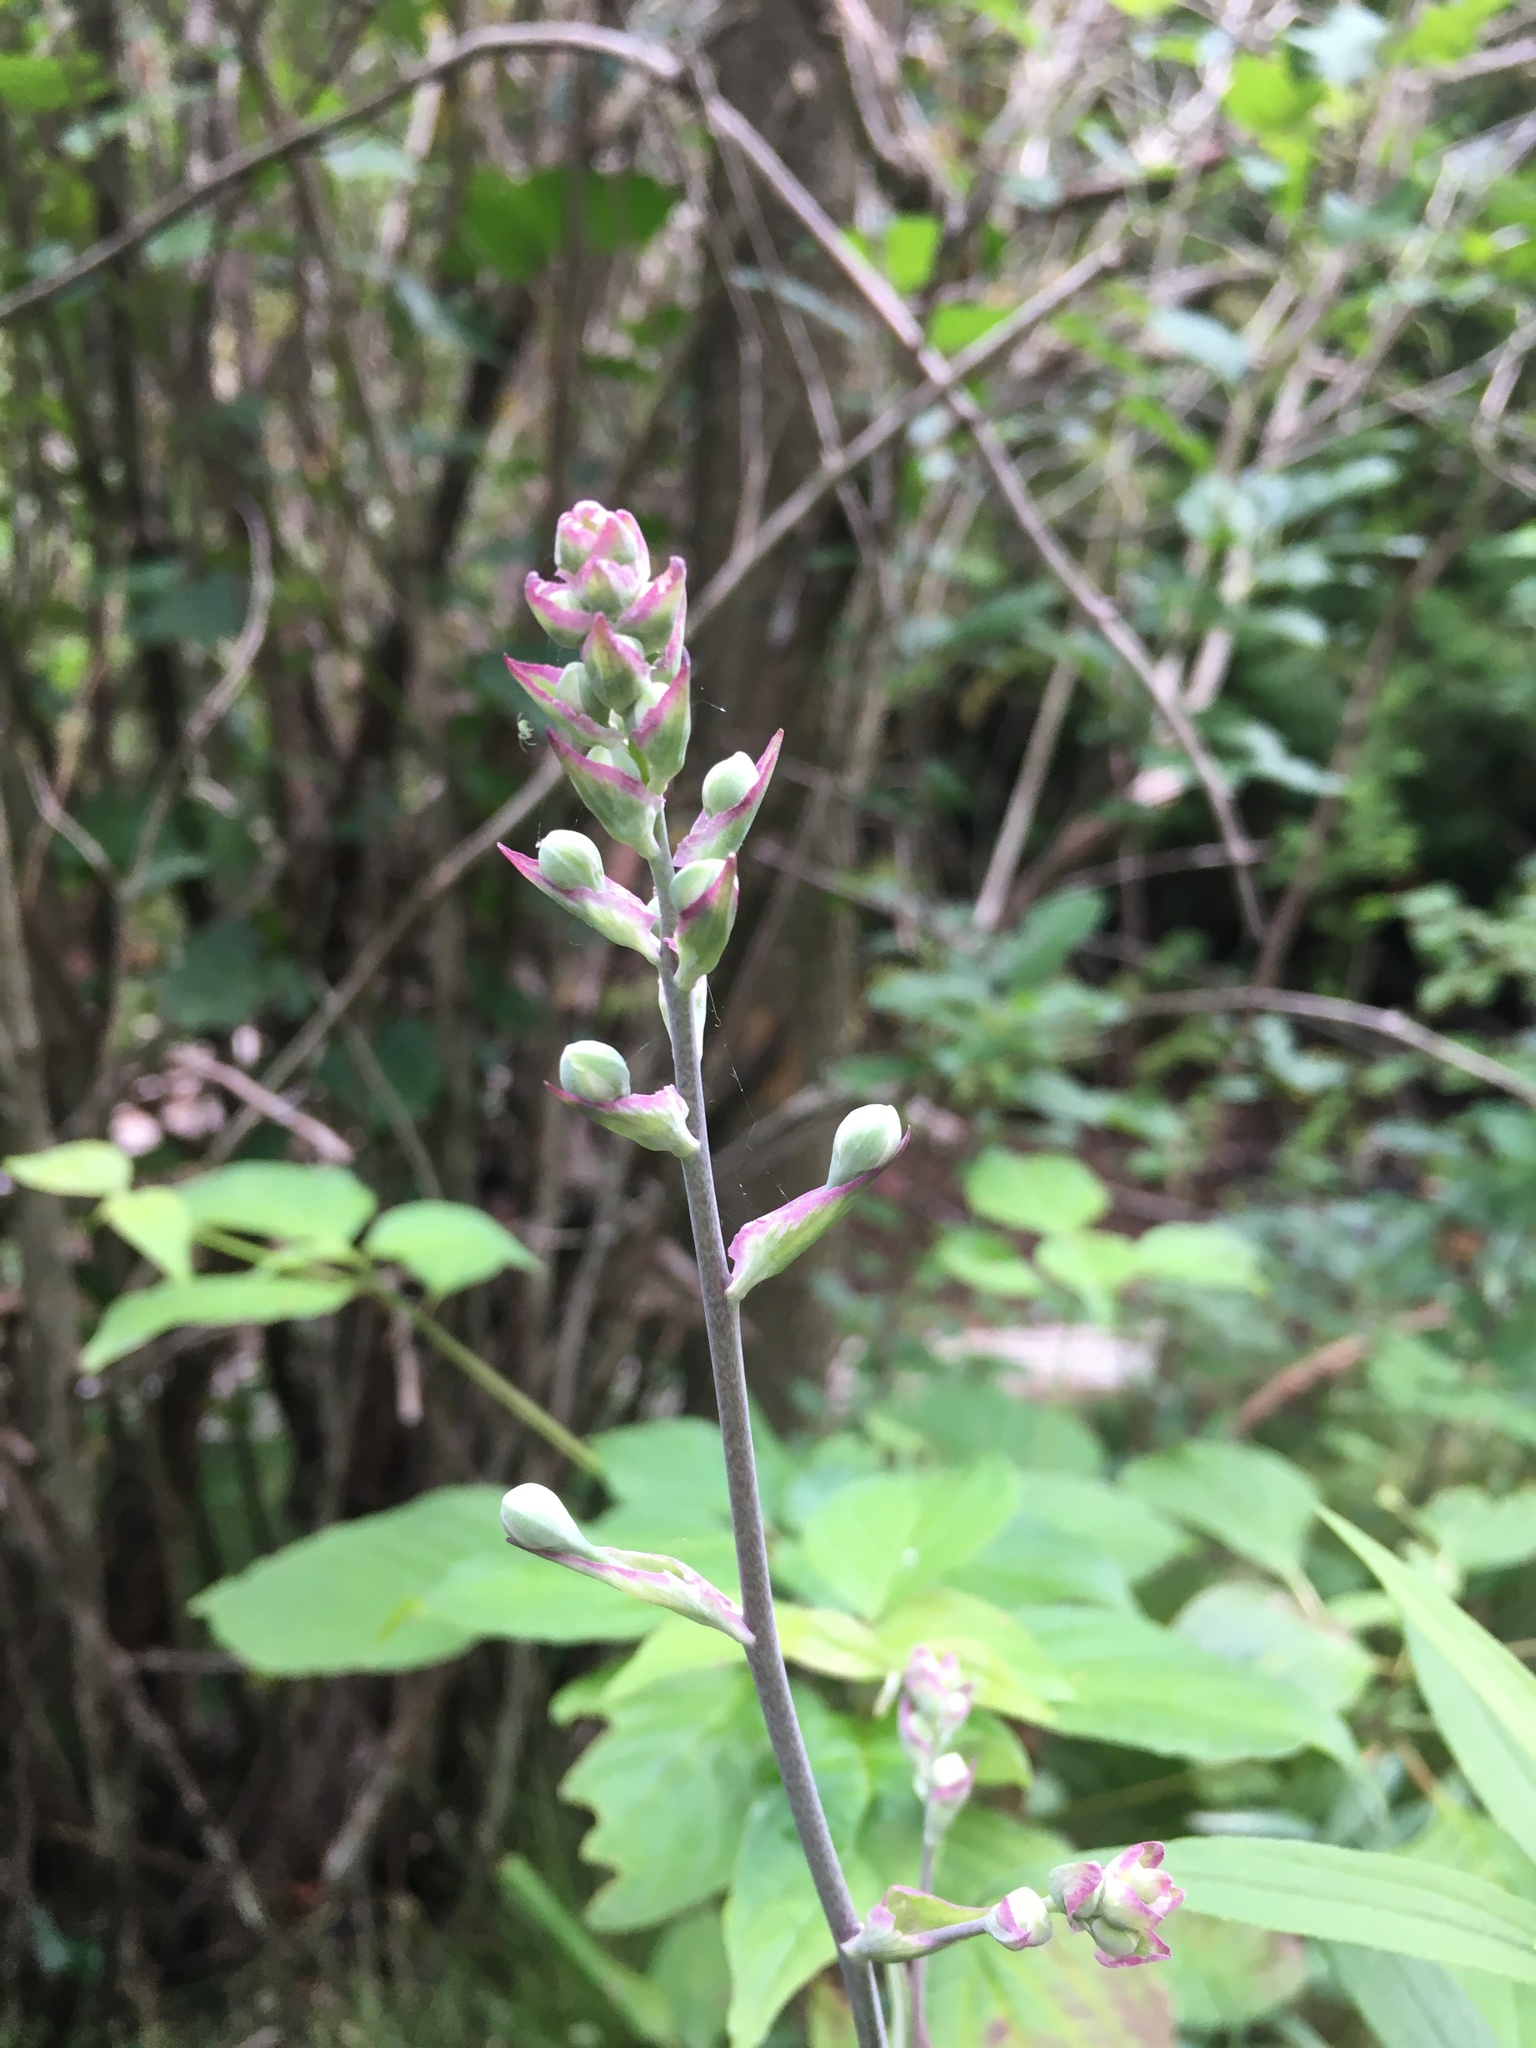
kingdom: Plantae
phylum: Tracheophyta
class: Liliopsida
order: Liliales
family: Melanthiaceae
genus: Anticlea
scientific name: Anticlea elegans
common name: Mountain death camas
